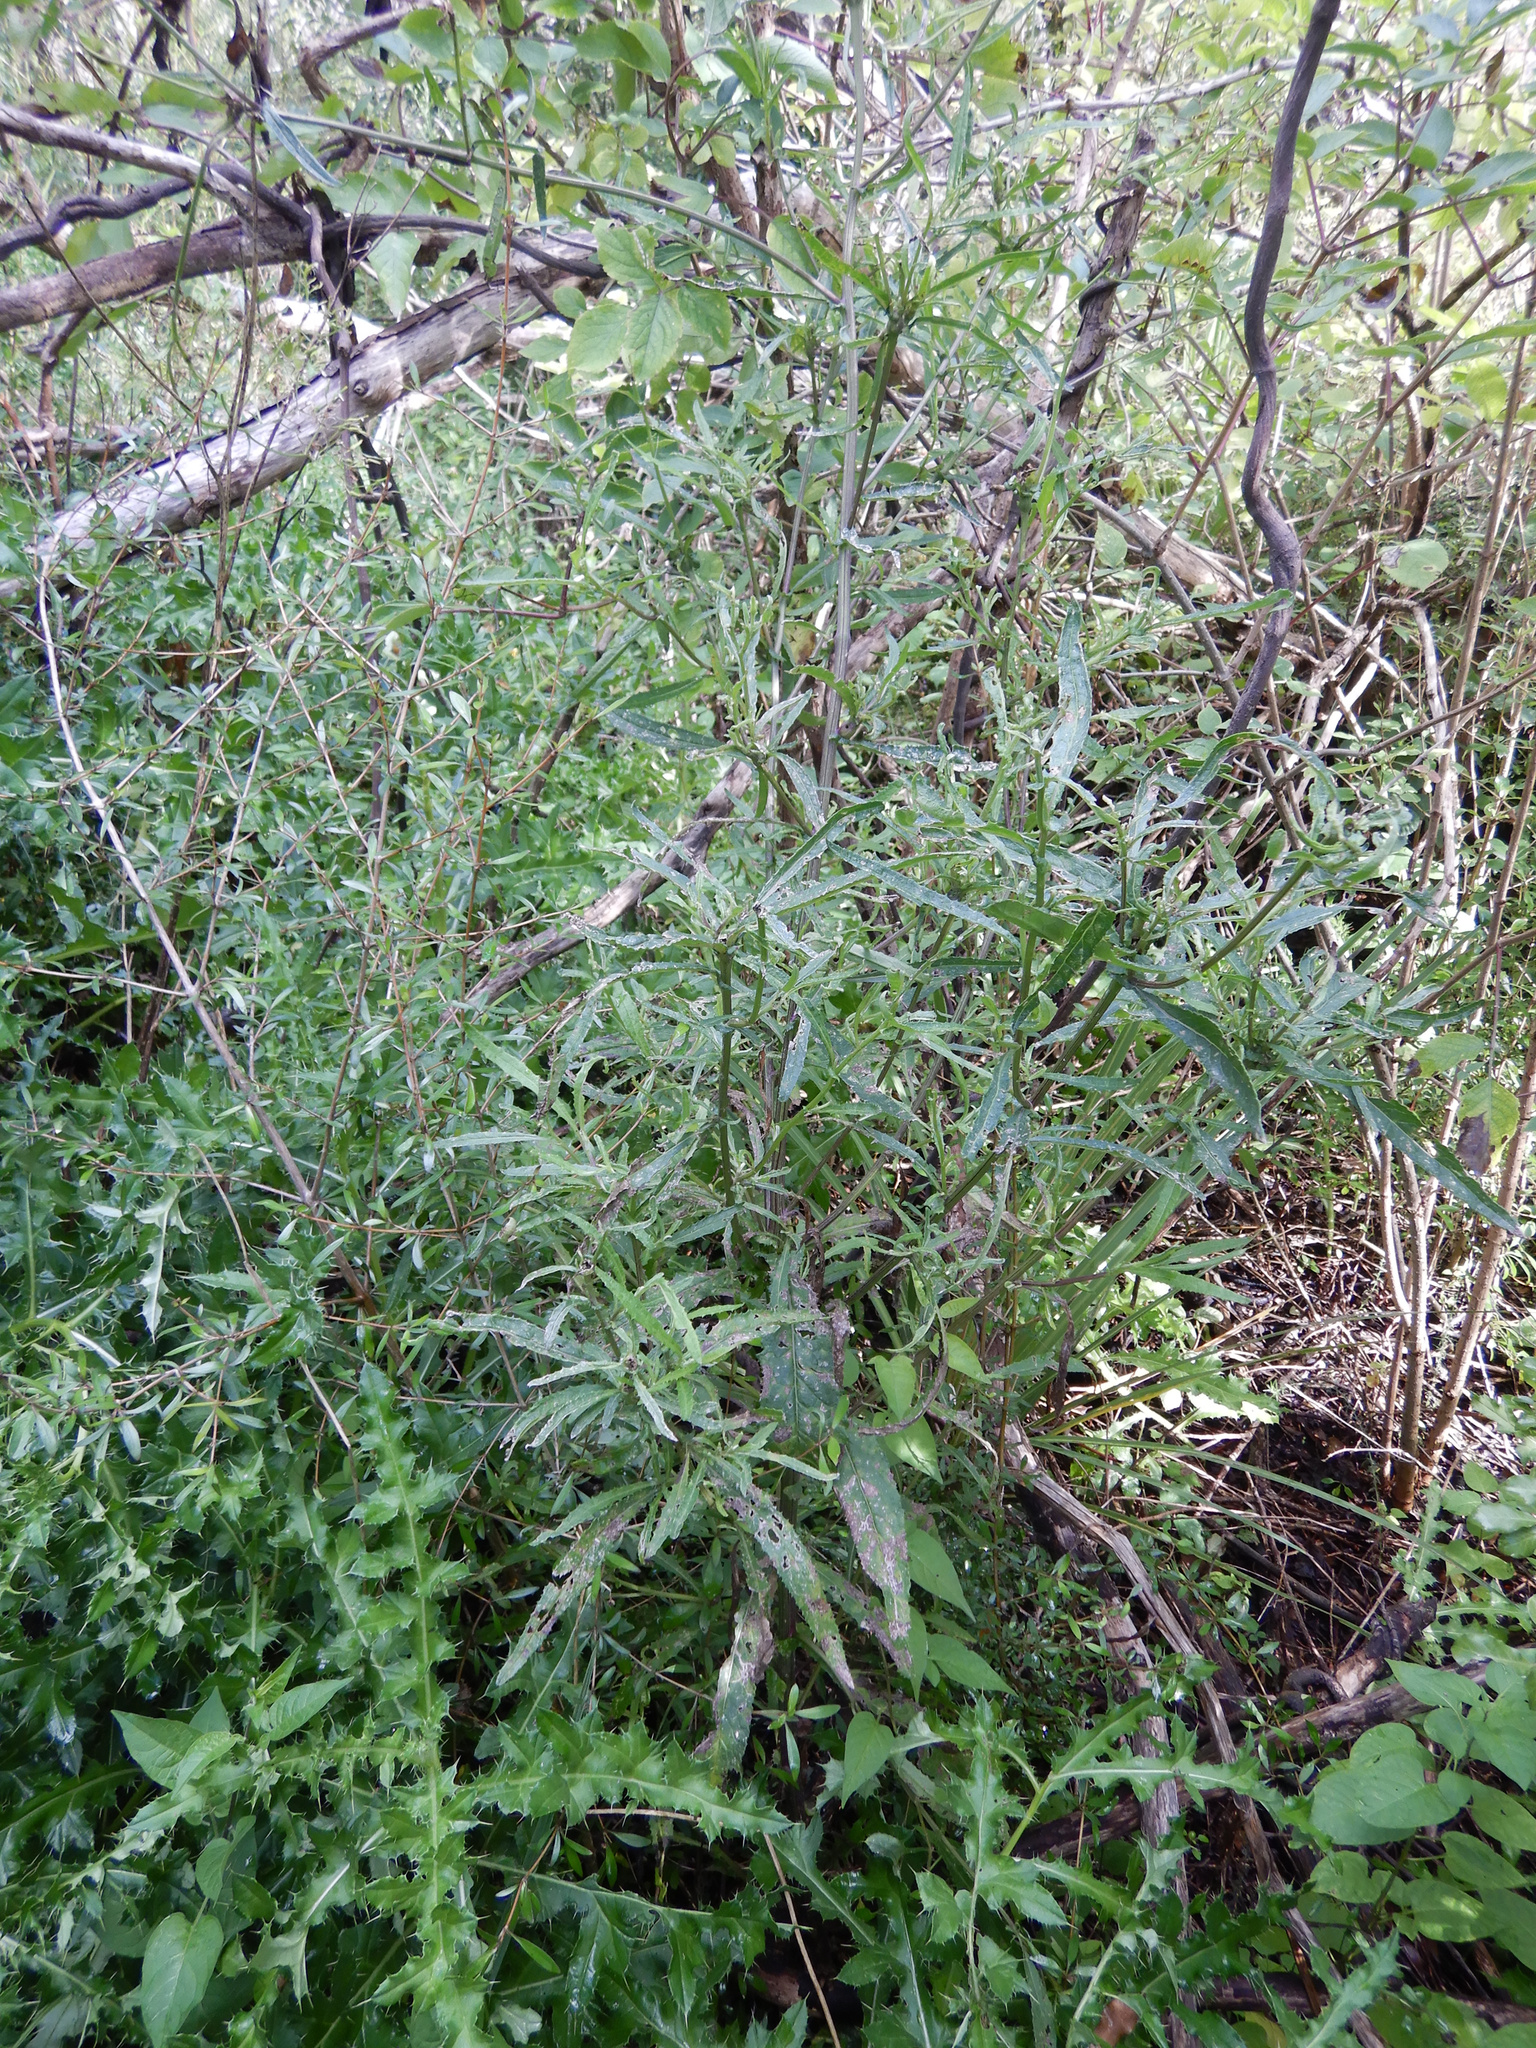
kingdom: Plantae
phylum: Tracheophyta
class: Magnoliopsida
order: Asterales
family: Asteraceae
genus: Senecio
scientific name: Senecio minimus
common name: Toothed fireweed
